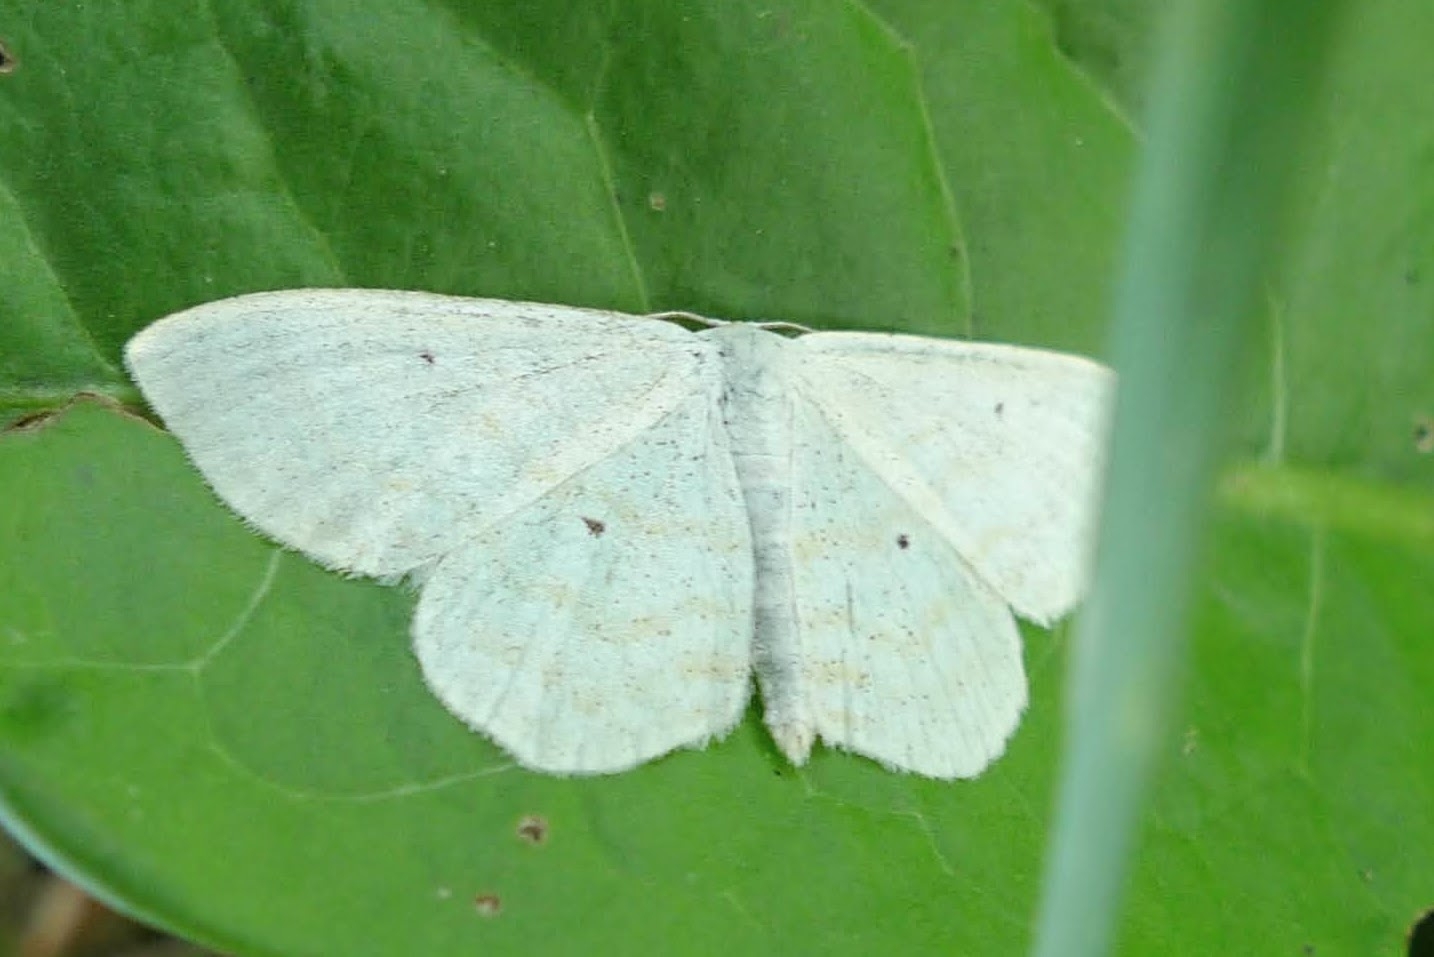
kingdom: Animalia
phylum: Arthropoda
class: Insecta
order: Lepidoptera
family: Geometridae
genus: Scopula
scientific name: Scopula immutata
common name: Lesser cream wave
